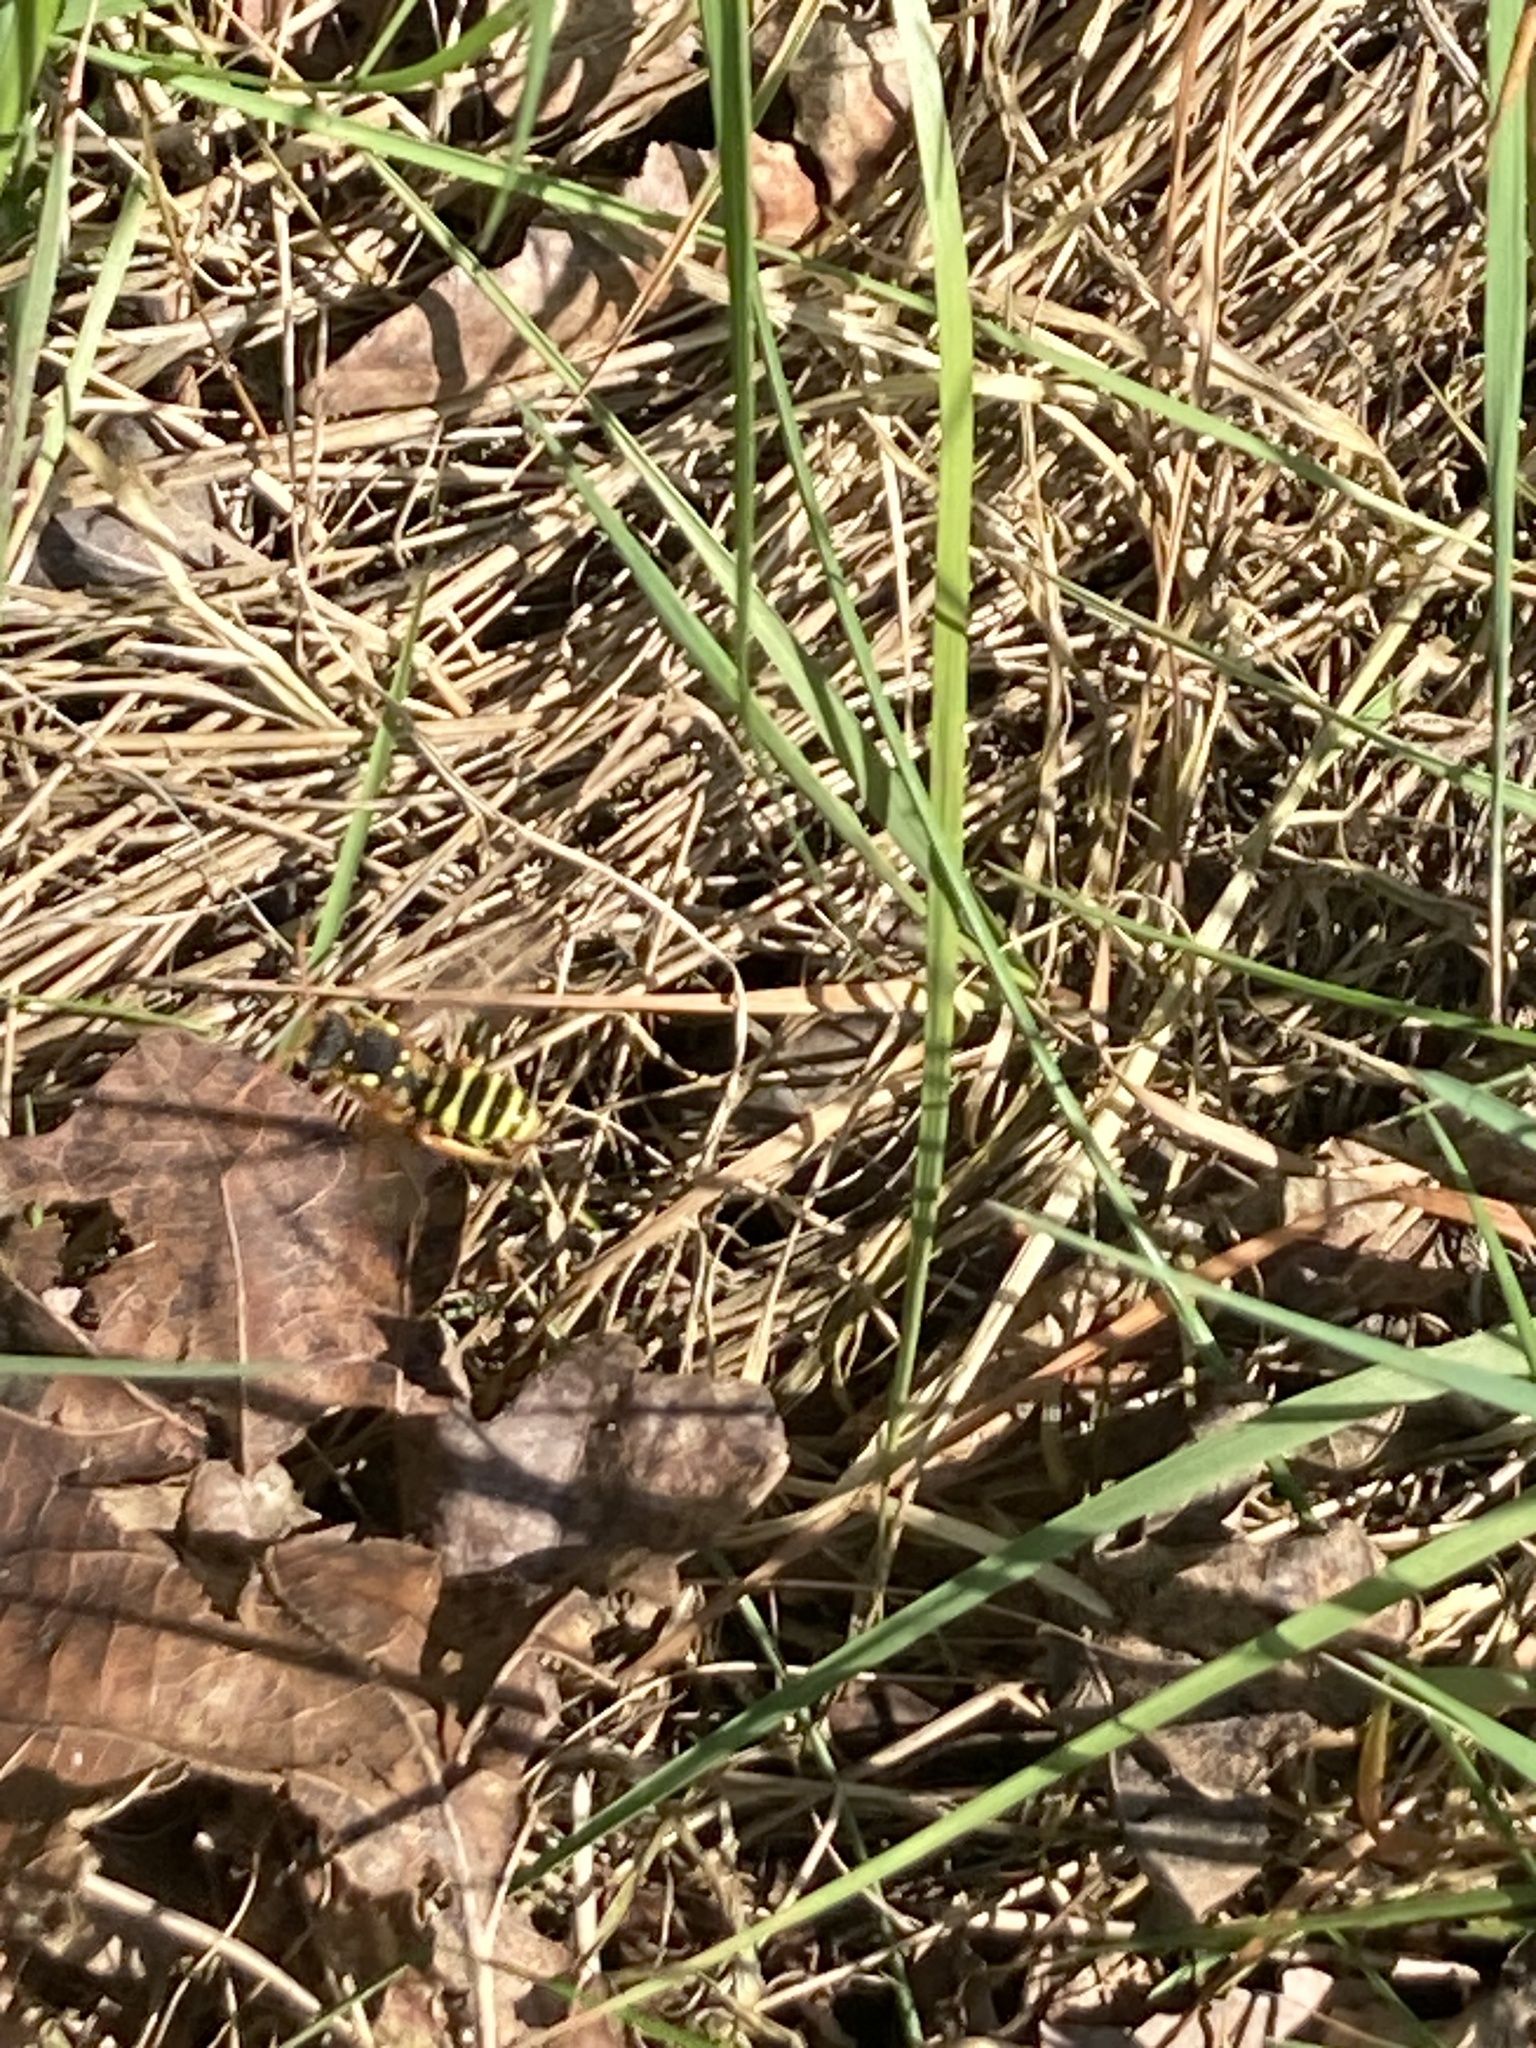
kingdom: Animalia
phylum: Arthropoda
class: Insecta
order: Hymenoptera
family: Apidae
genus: Nomada
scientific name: Nomada goodeniana
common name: Gooden's nomad bee
